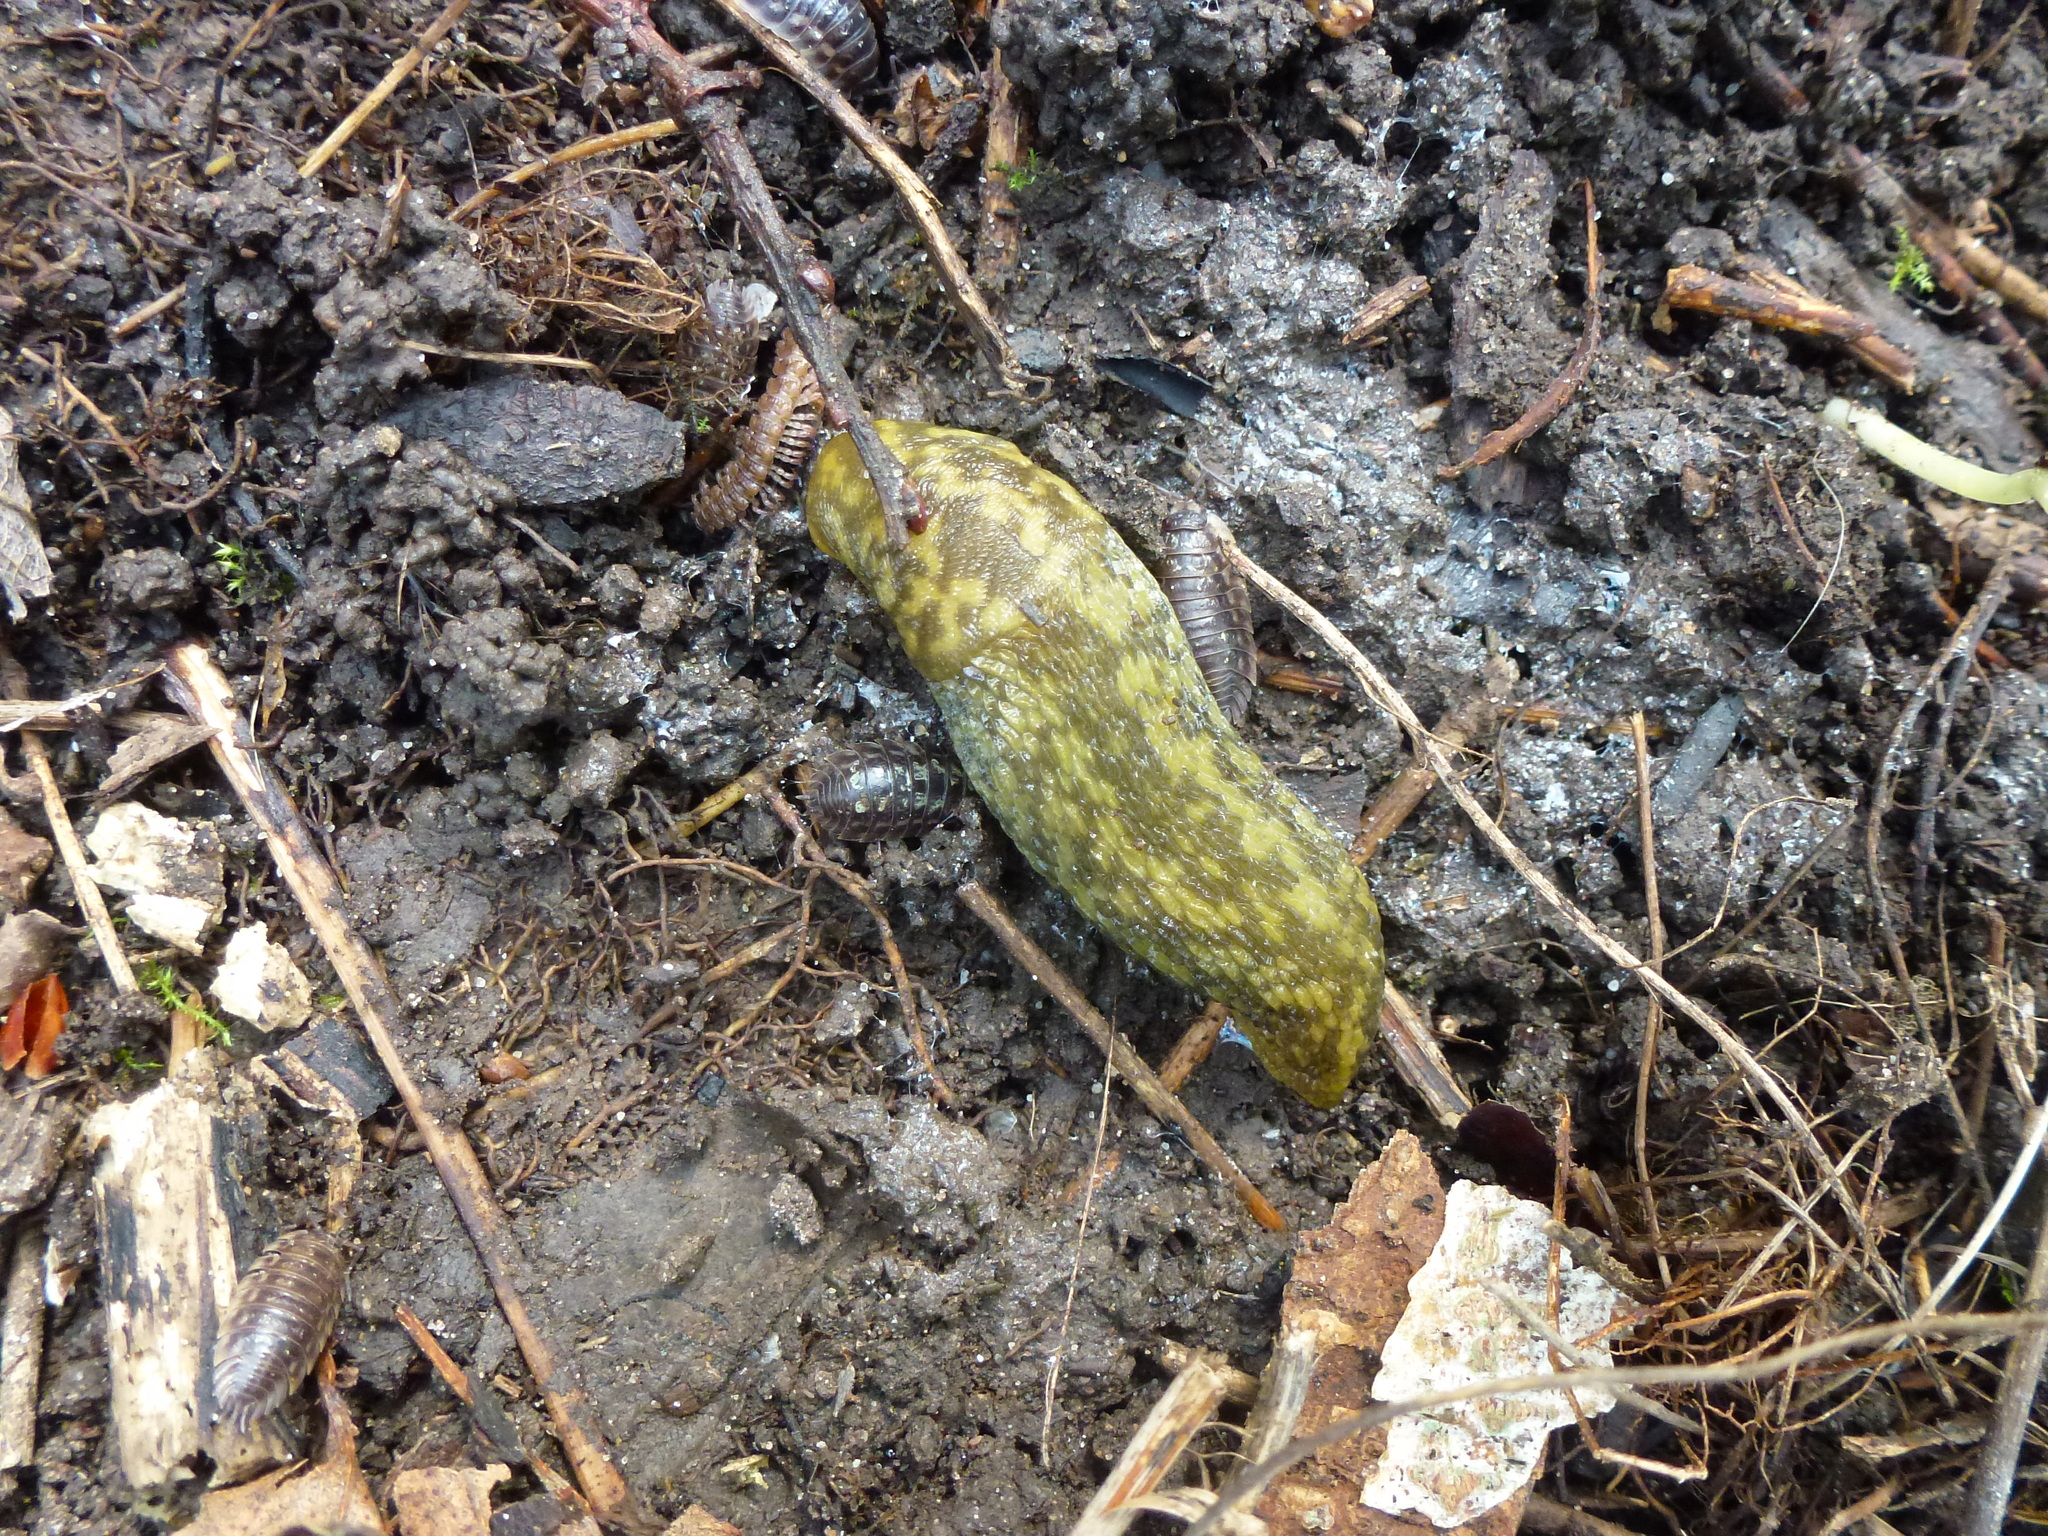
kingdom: Animalia
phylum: Mollusca
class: Gastropoda
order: Stylommatophora
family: Limacidae
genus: Limacus
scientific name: Limacus maculatus
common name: Irish yellow slug
